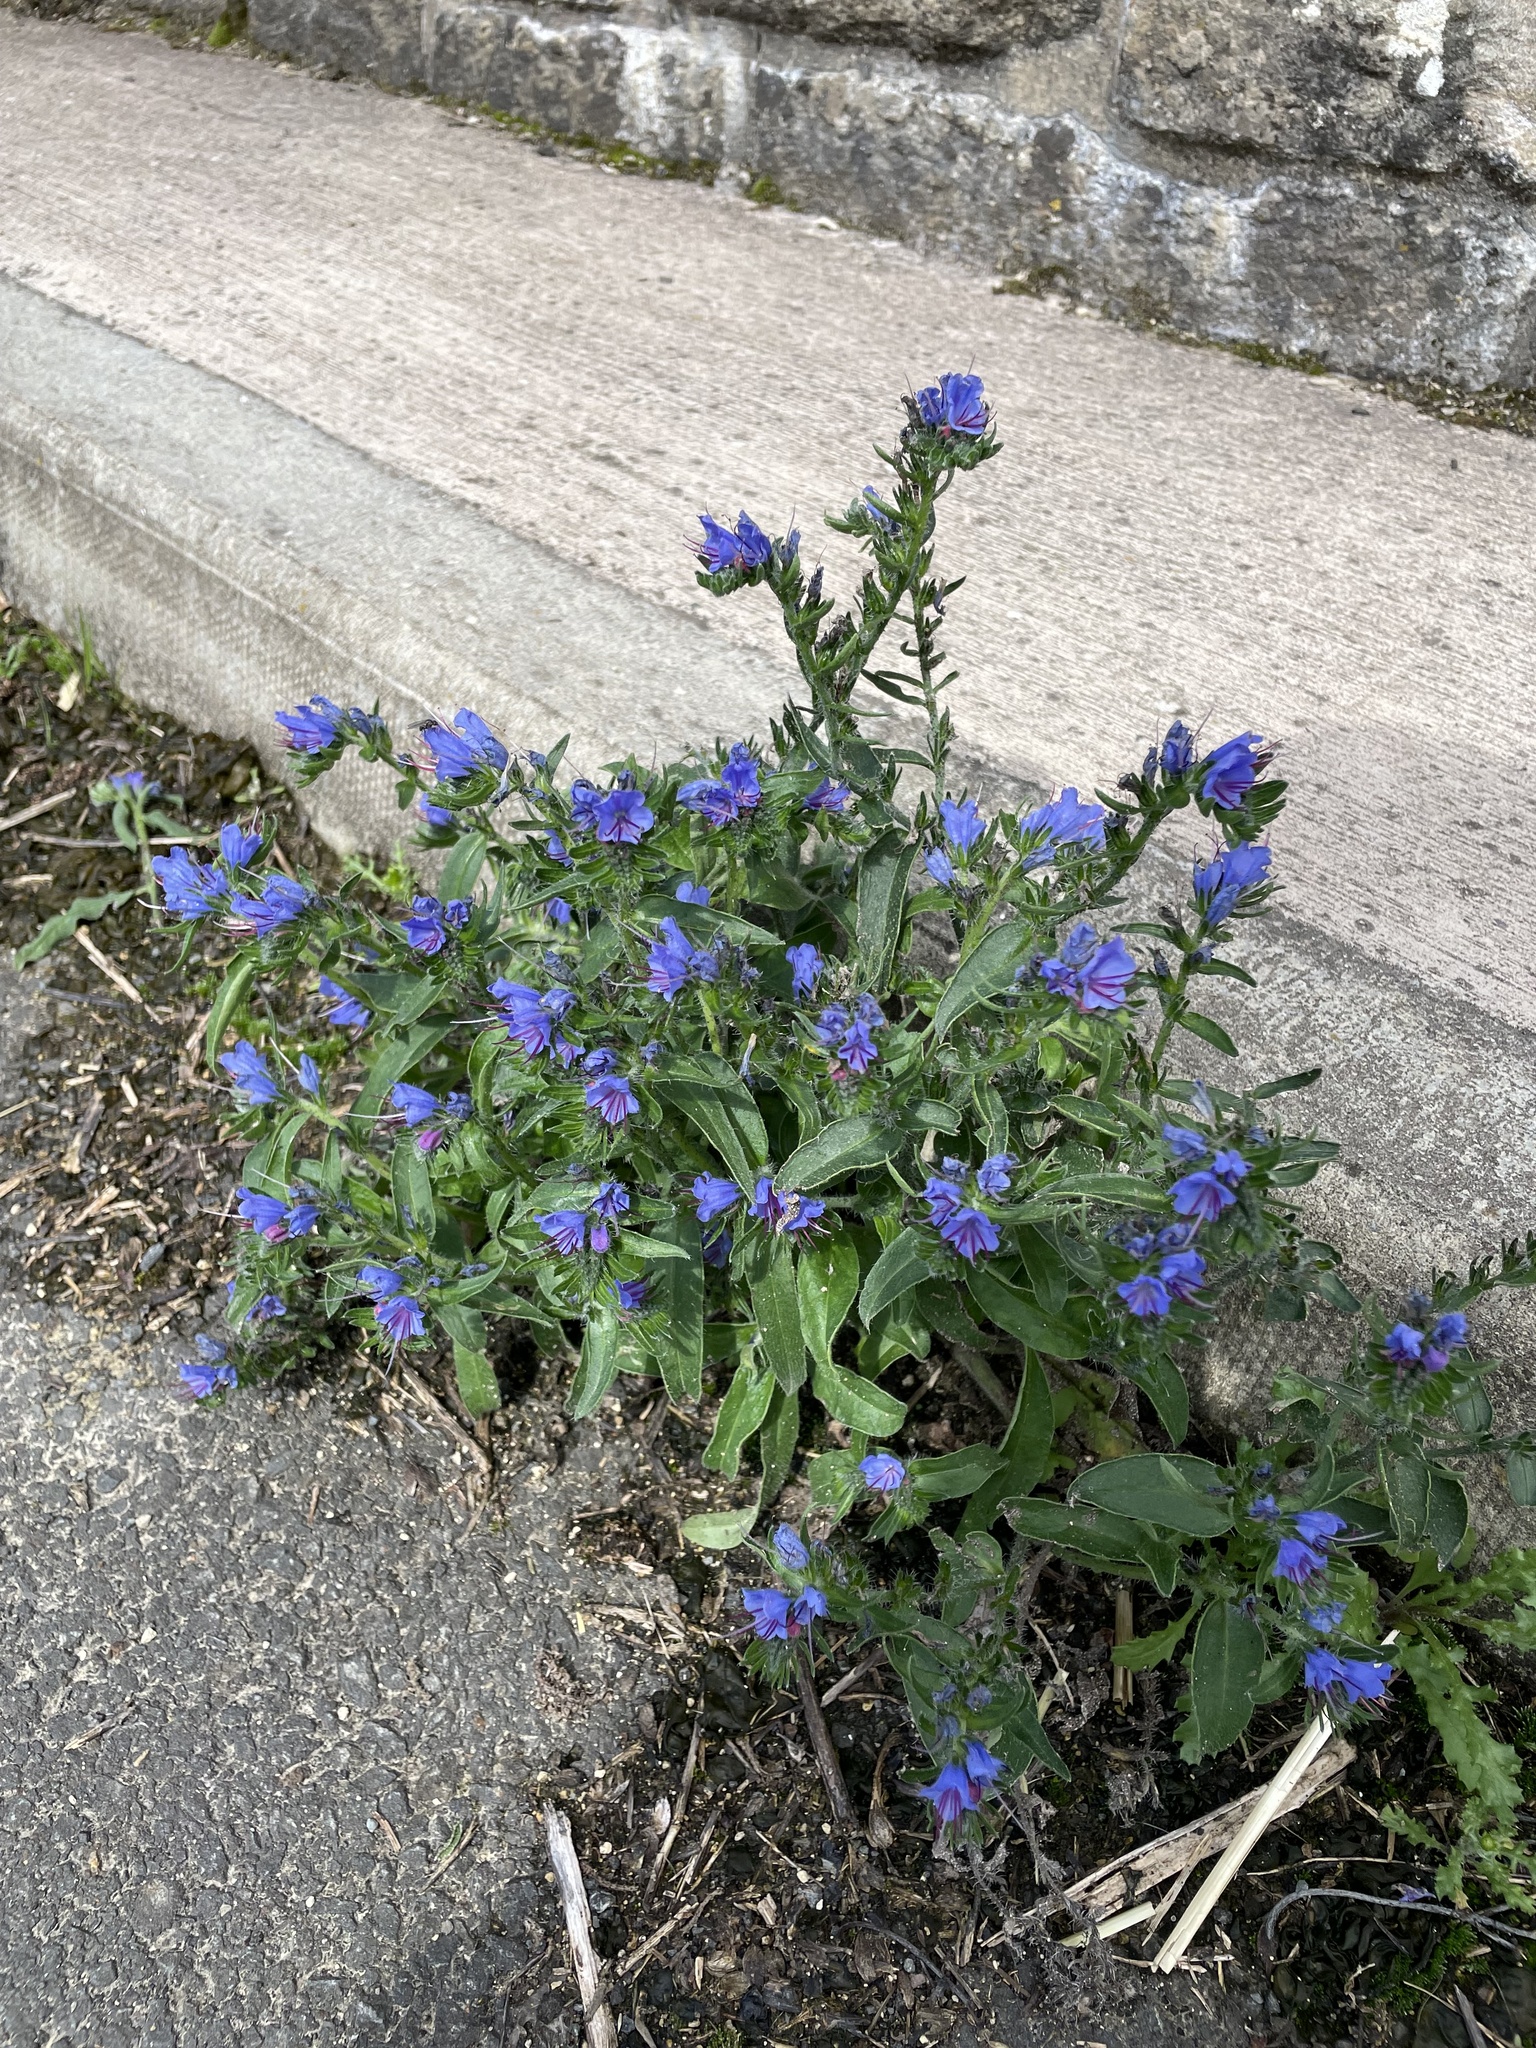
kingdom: Plantae
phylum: Tracheophyta
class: Magnoliopsida
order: Boraginales
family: Boraginaceae
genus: Echium
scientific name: Echium vulgare
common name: Common viper's bugloss
